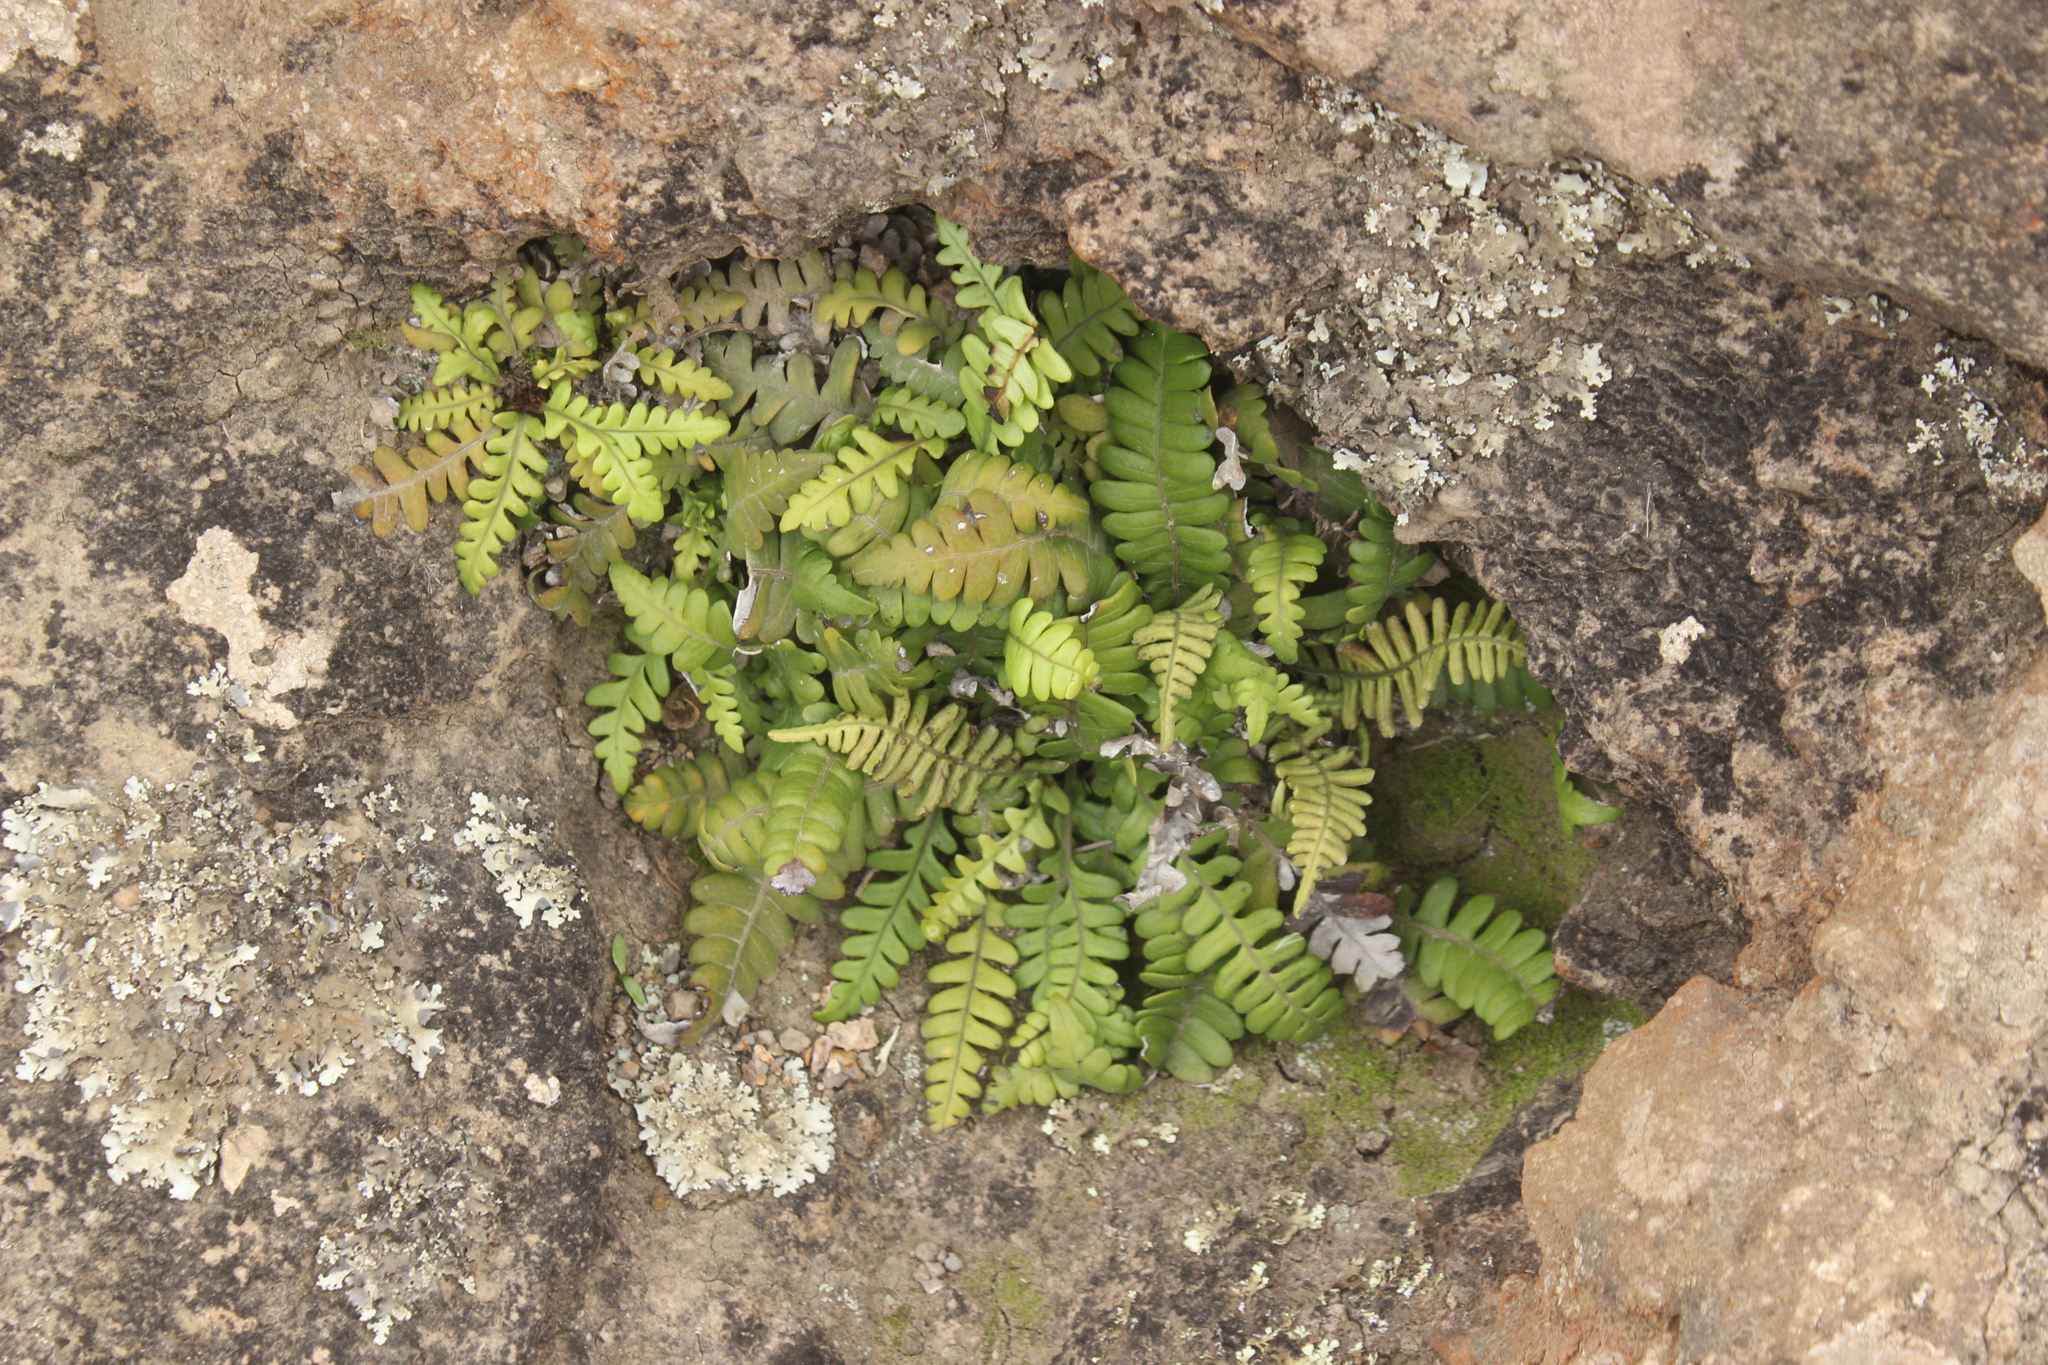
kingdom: Plantae
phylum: Tracheophyta
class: Polypodiopsida
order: Polypodiales
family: Blechnaceae
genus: Austroblechnum
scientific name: Austroblechnum durum
